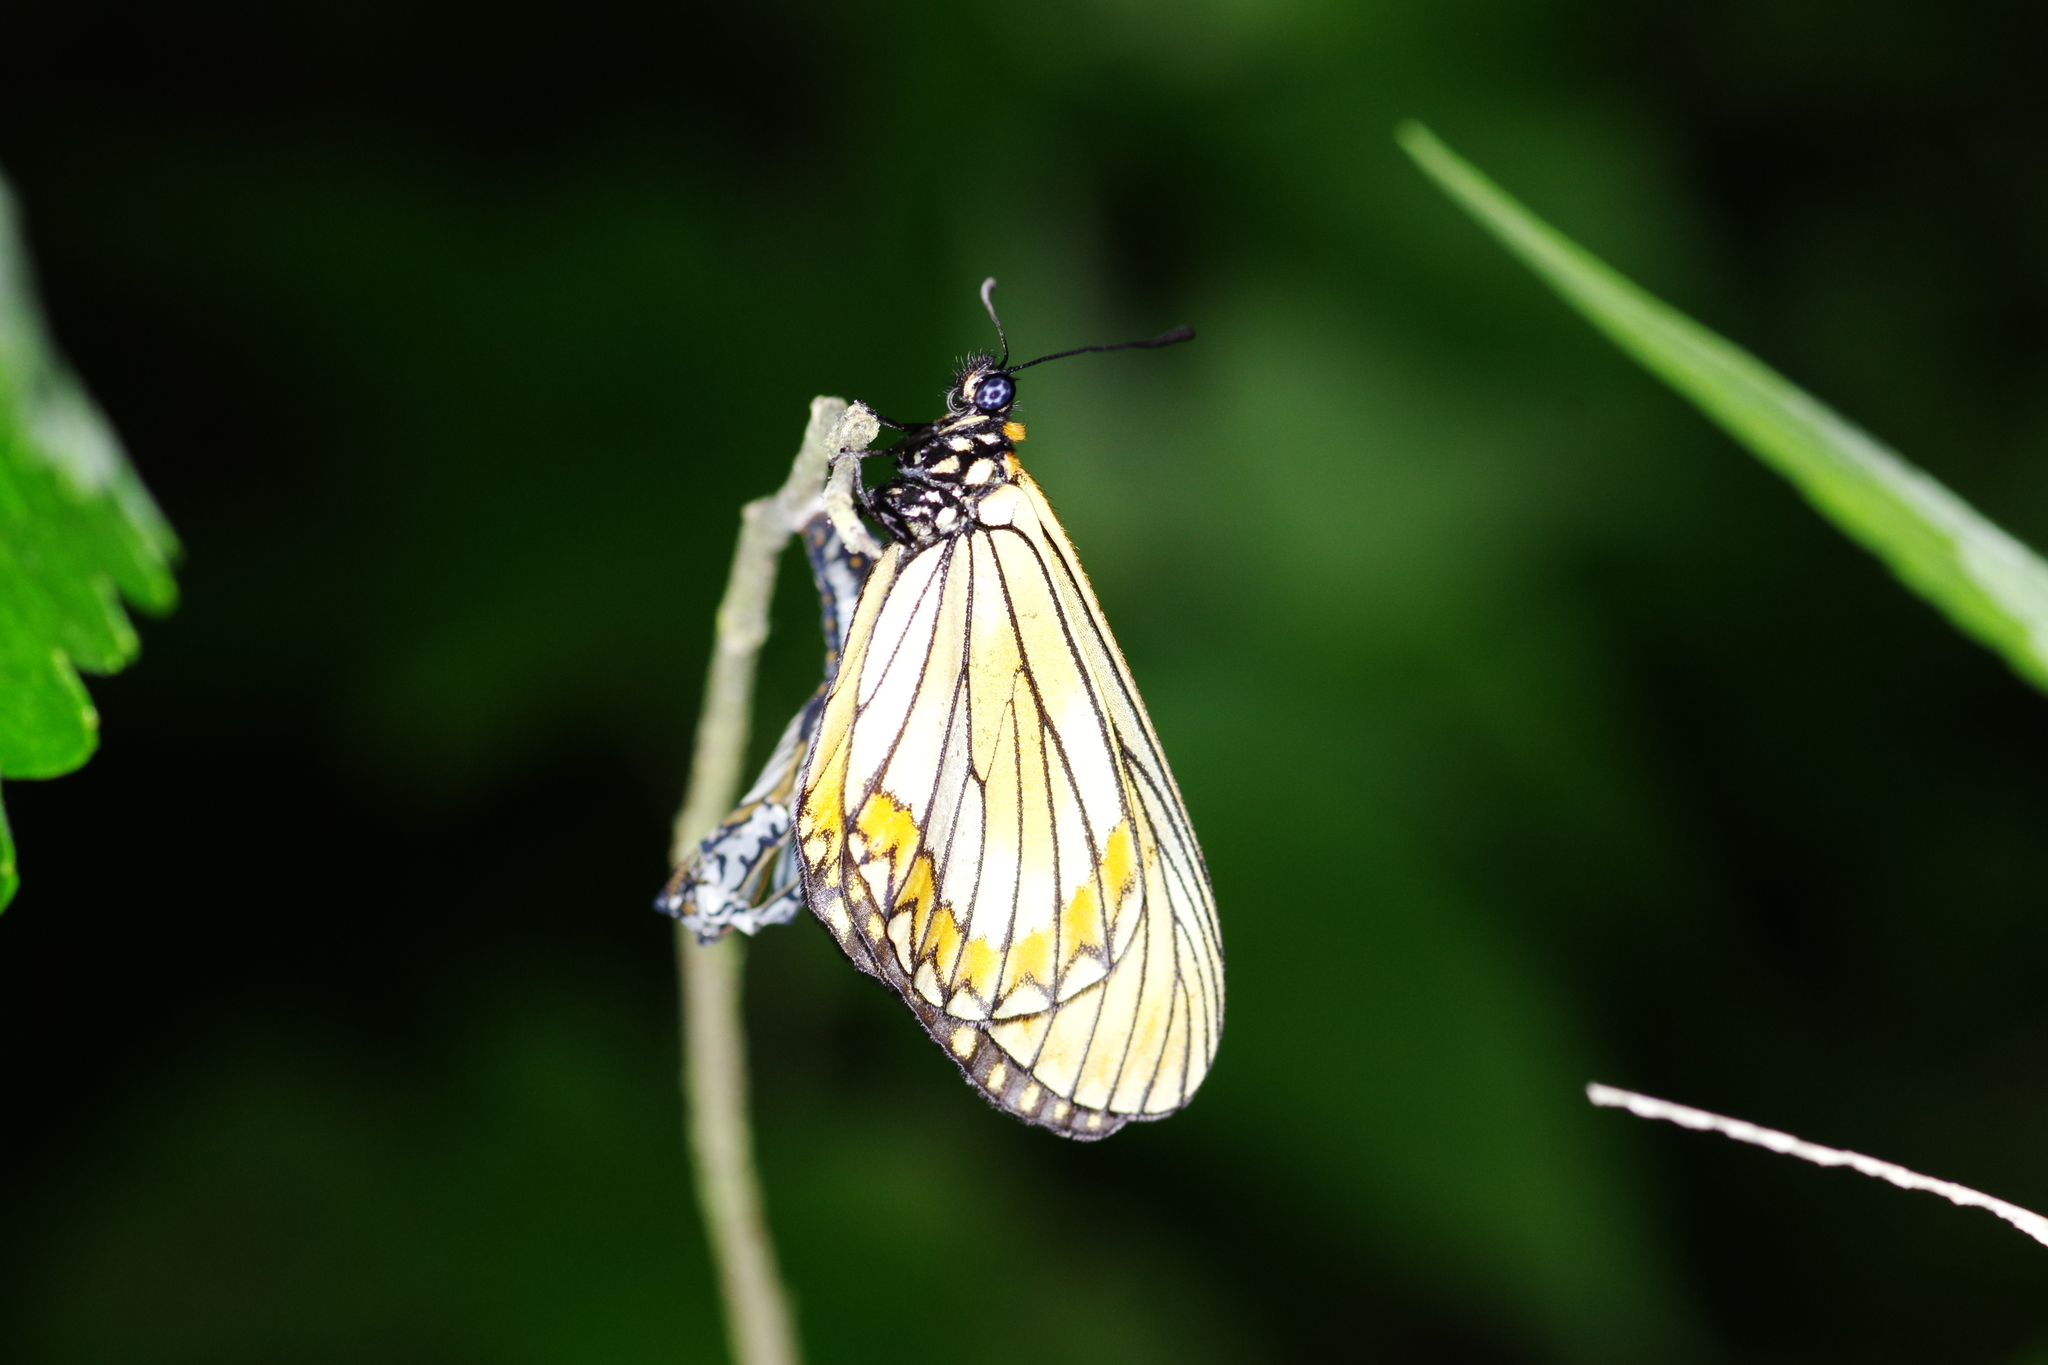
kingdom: Animalia
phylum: Arthropoda
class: Insecta
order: Lepidoptera
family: Nymphalidae
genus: Acraea
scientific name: Acraea Telchinia issoria
